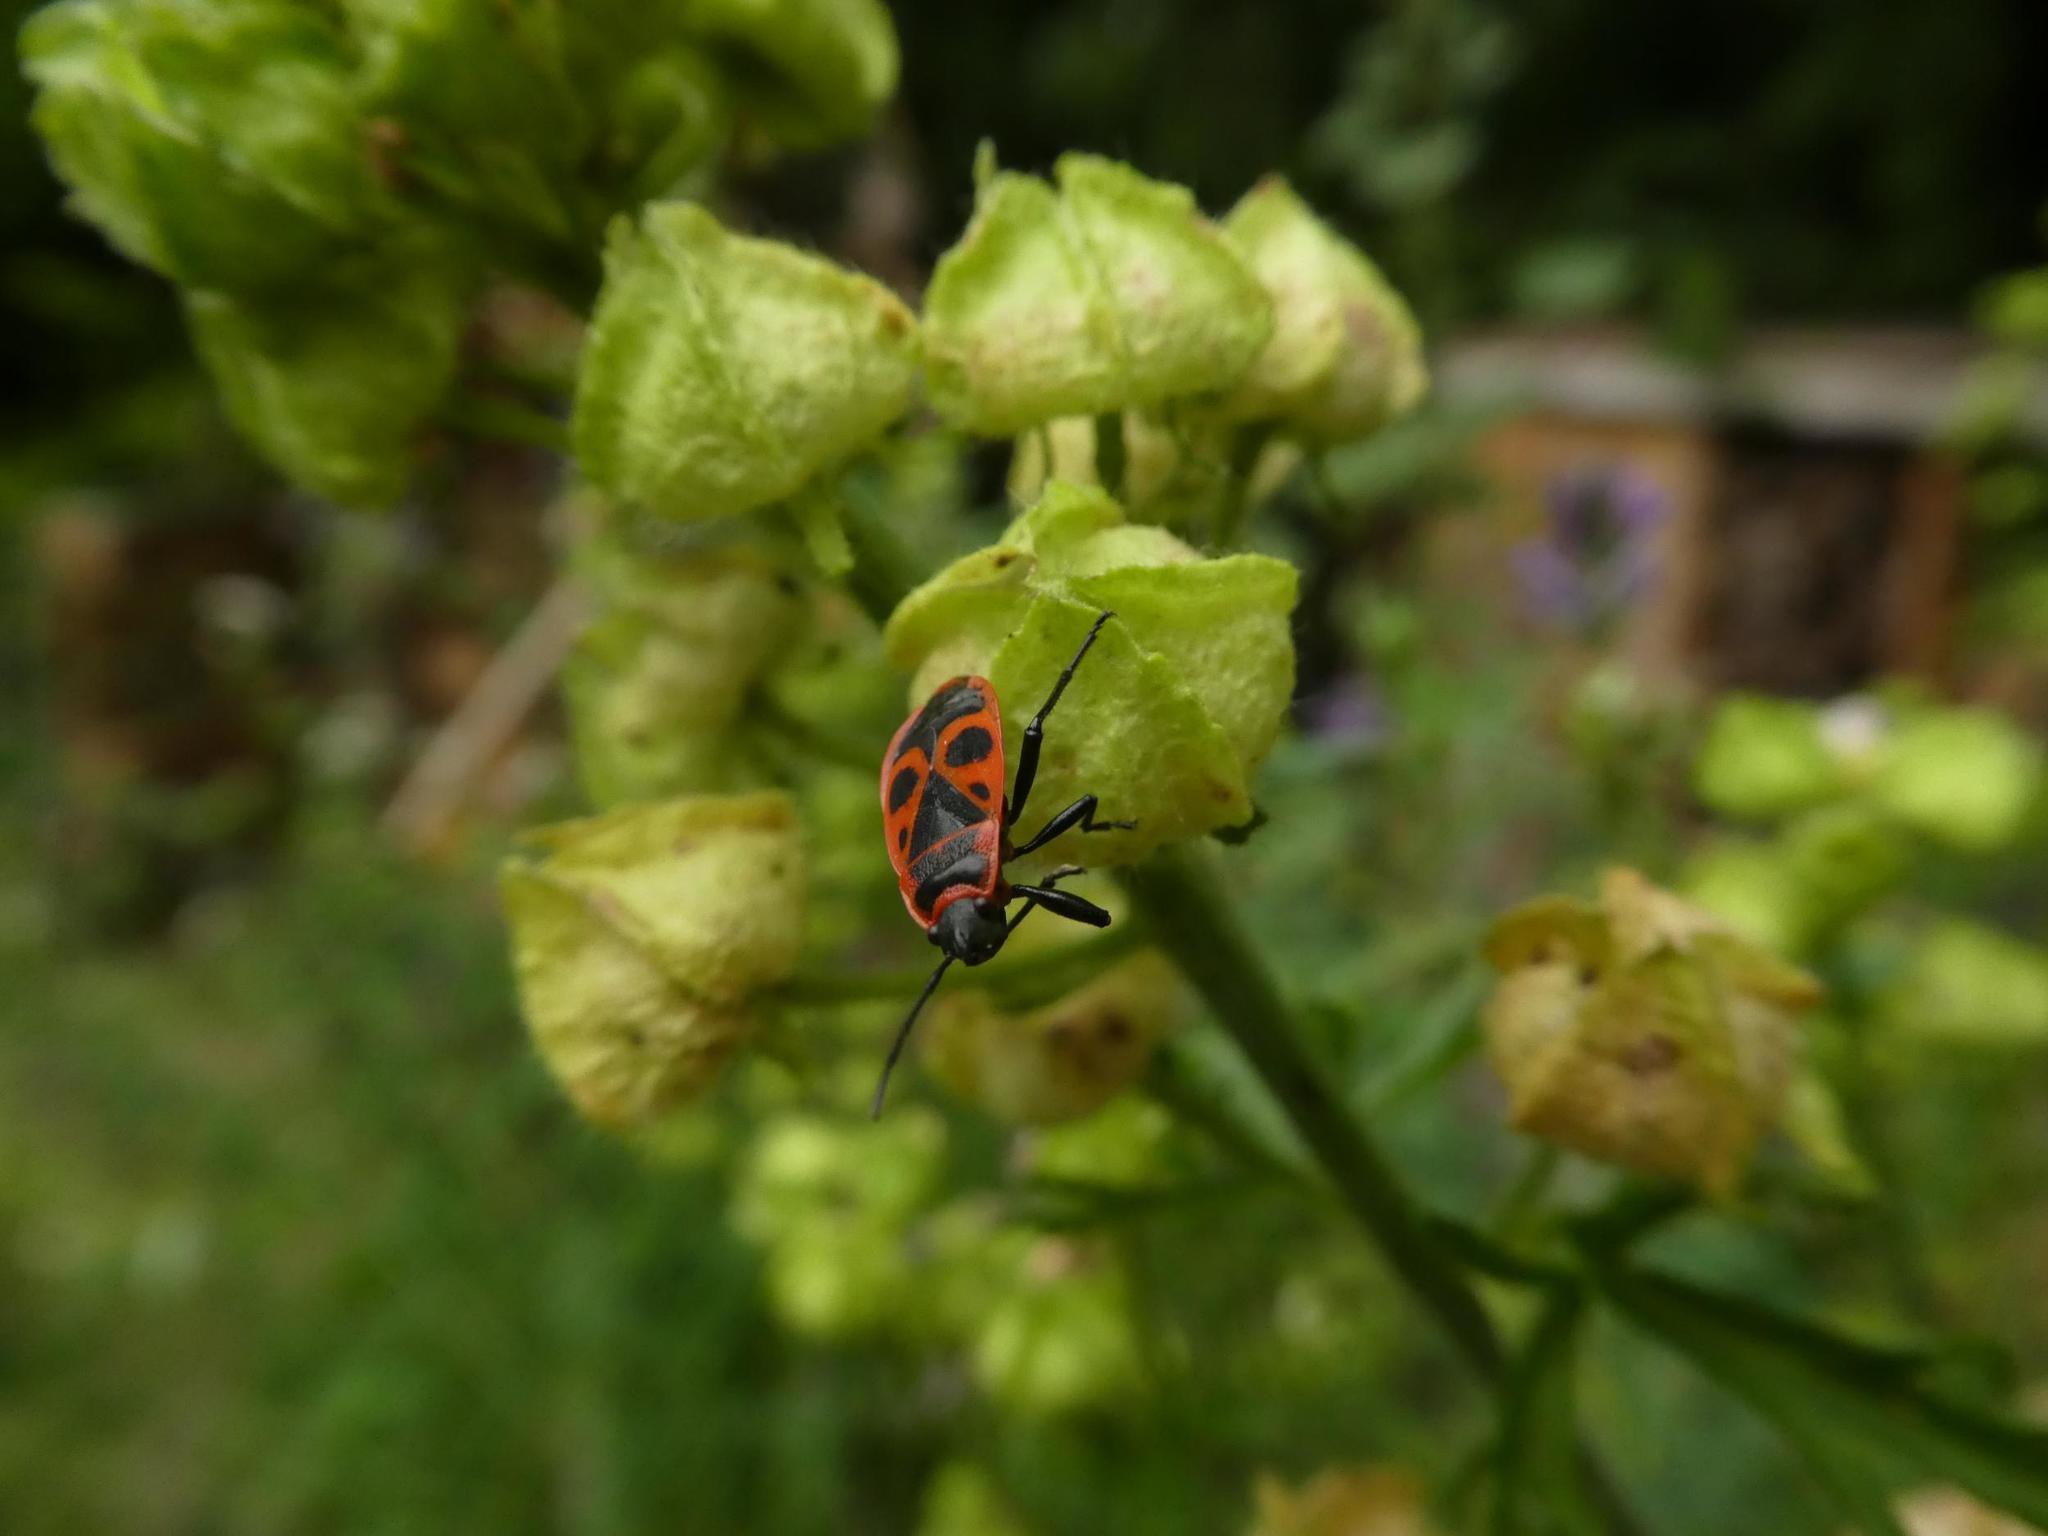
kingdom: Animalia
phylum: Arthropoda
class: Insecta
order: Hemiptera
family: Pyrrhocoridae
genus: Pyrrhocoris
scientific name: Pyrrhocoris apterus
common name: Firebug
